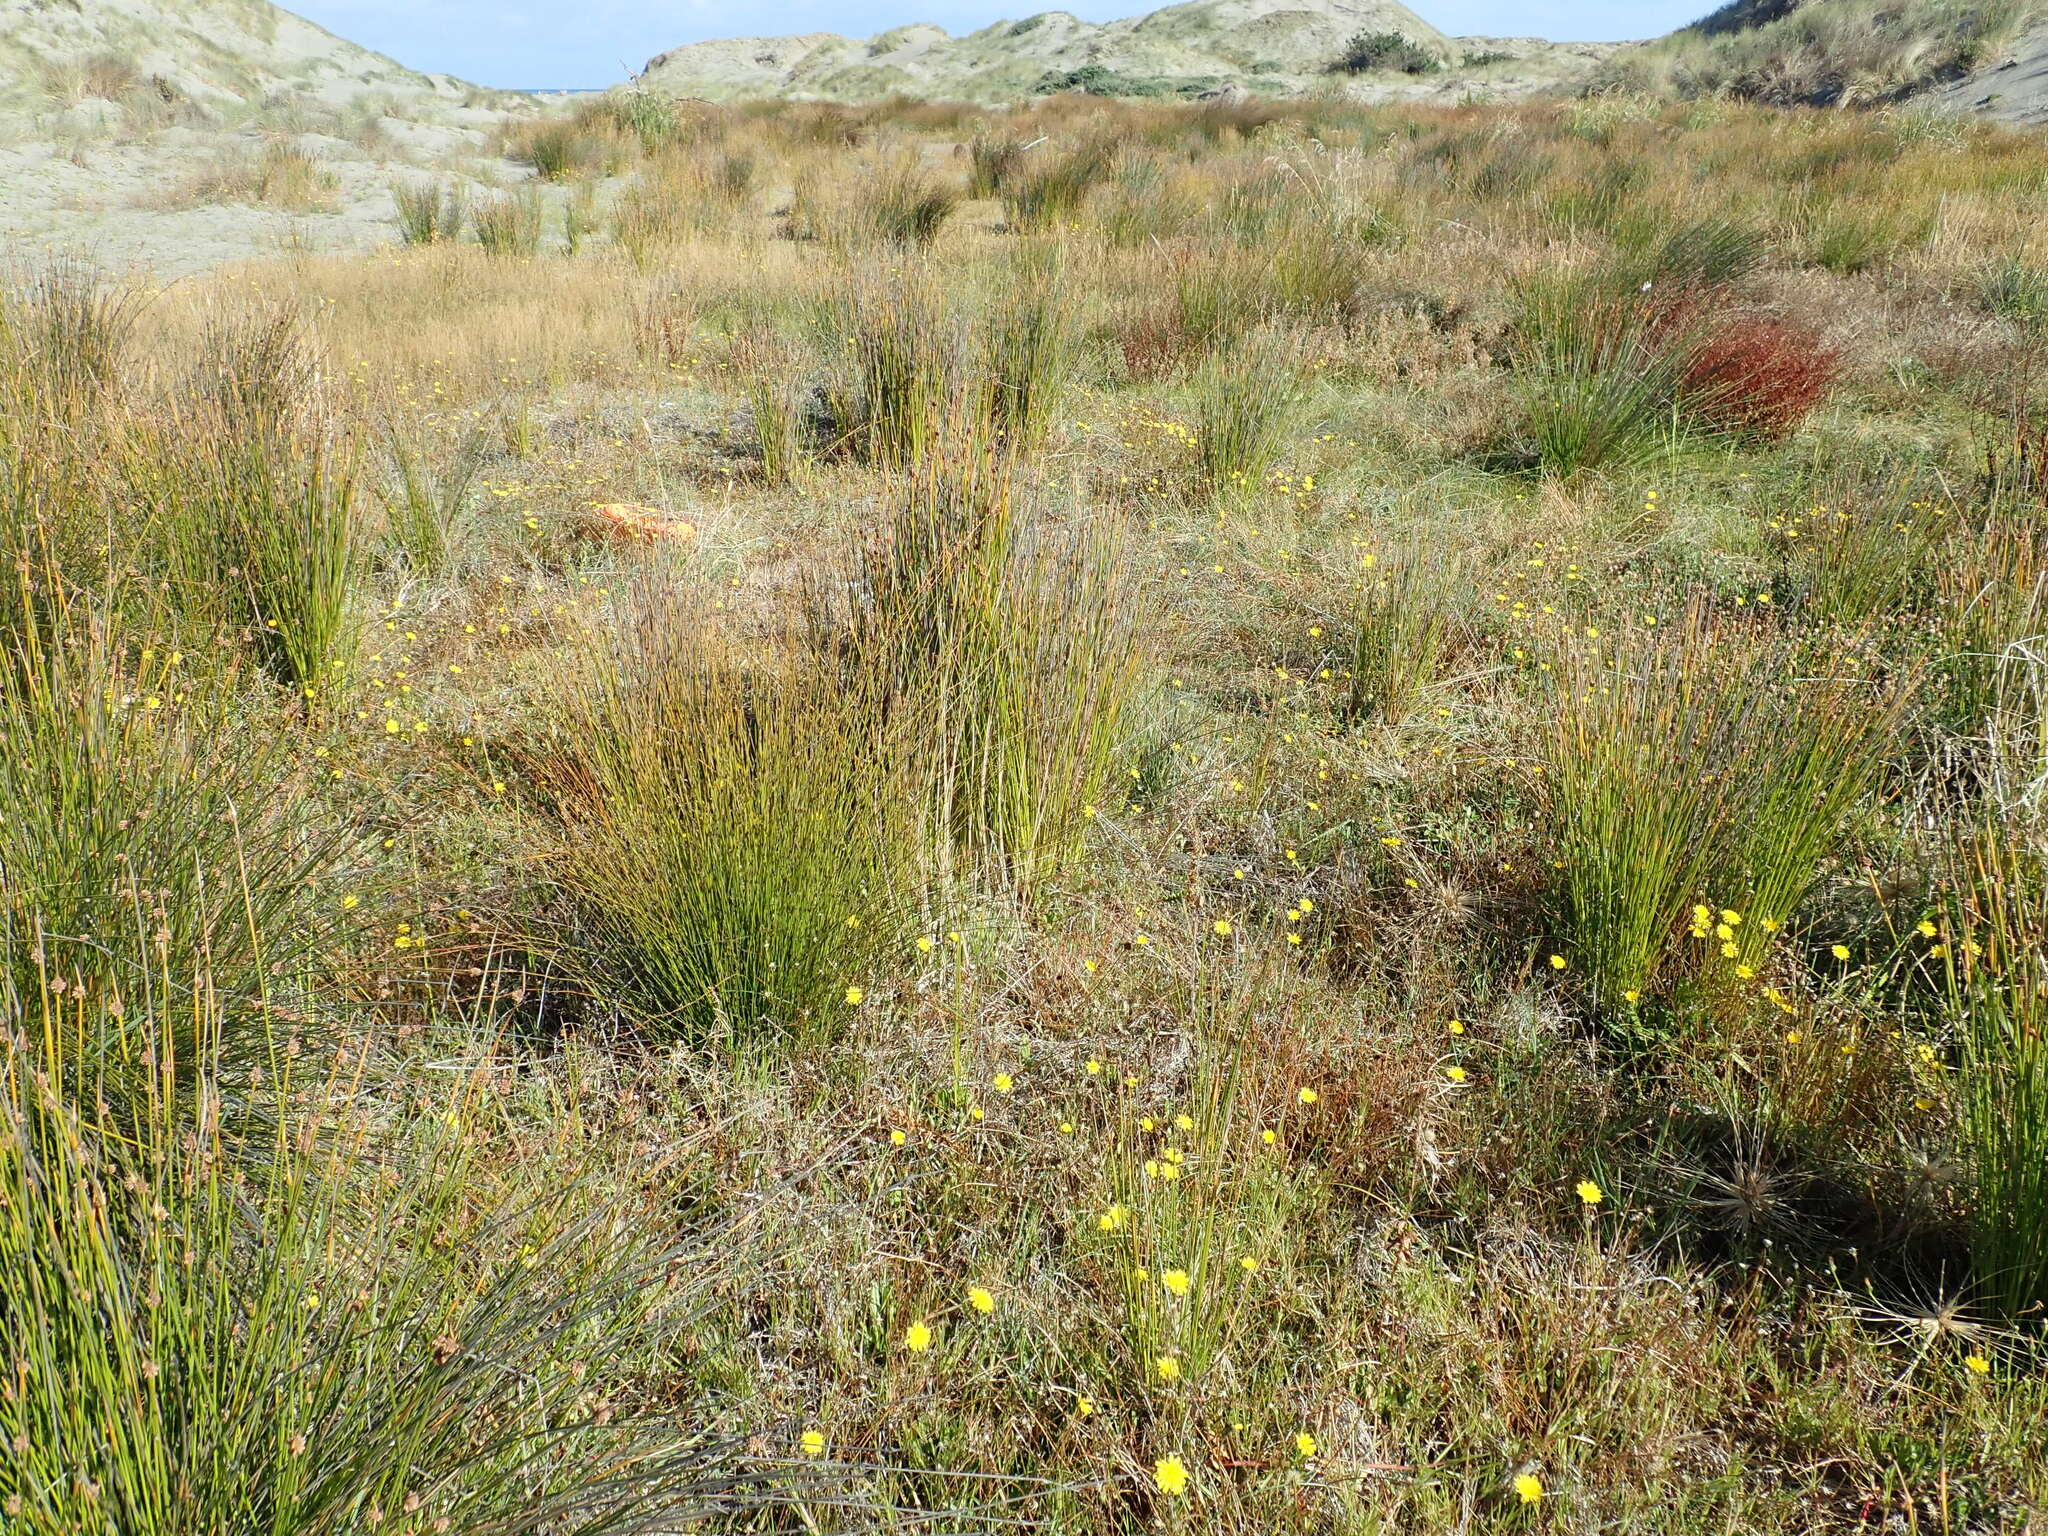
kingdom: Plantae
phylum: Tracheophyta
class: Magnoliopsida
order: Asterales
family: Asteraceae
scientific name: Asteraceae
